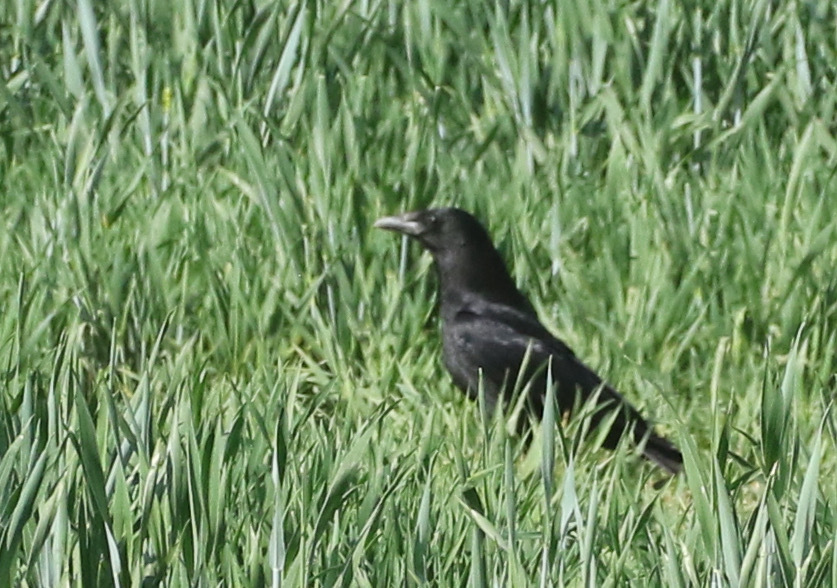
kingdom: Animalia
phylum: Chordata
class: Aves
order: Passeriformes
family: Corvidae
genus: Corvus
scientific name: Corvus corone
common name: Carrion crow
